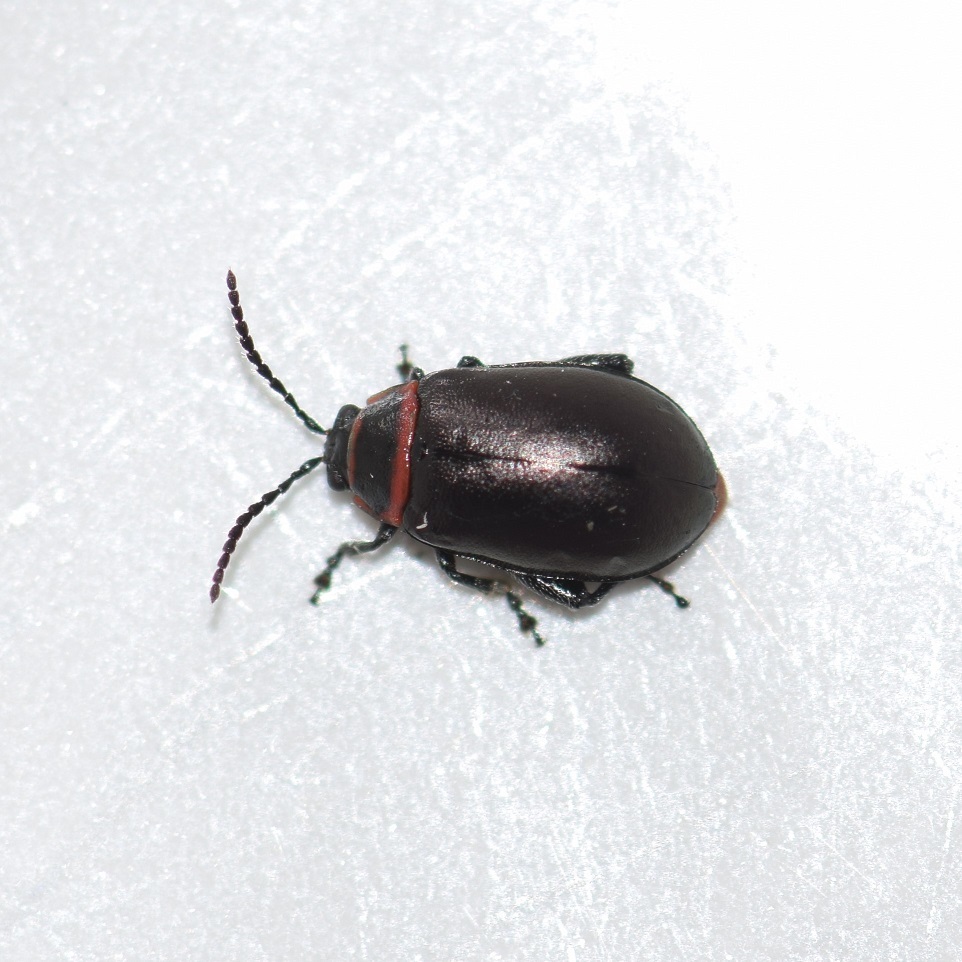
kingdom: Animalia
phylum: Arthropoda
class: Insecta
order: Coleoptera
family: Chrysomelidae
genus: Kuschelina
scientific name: Kuschelina vians
